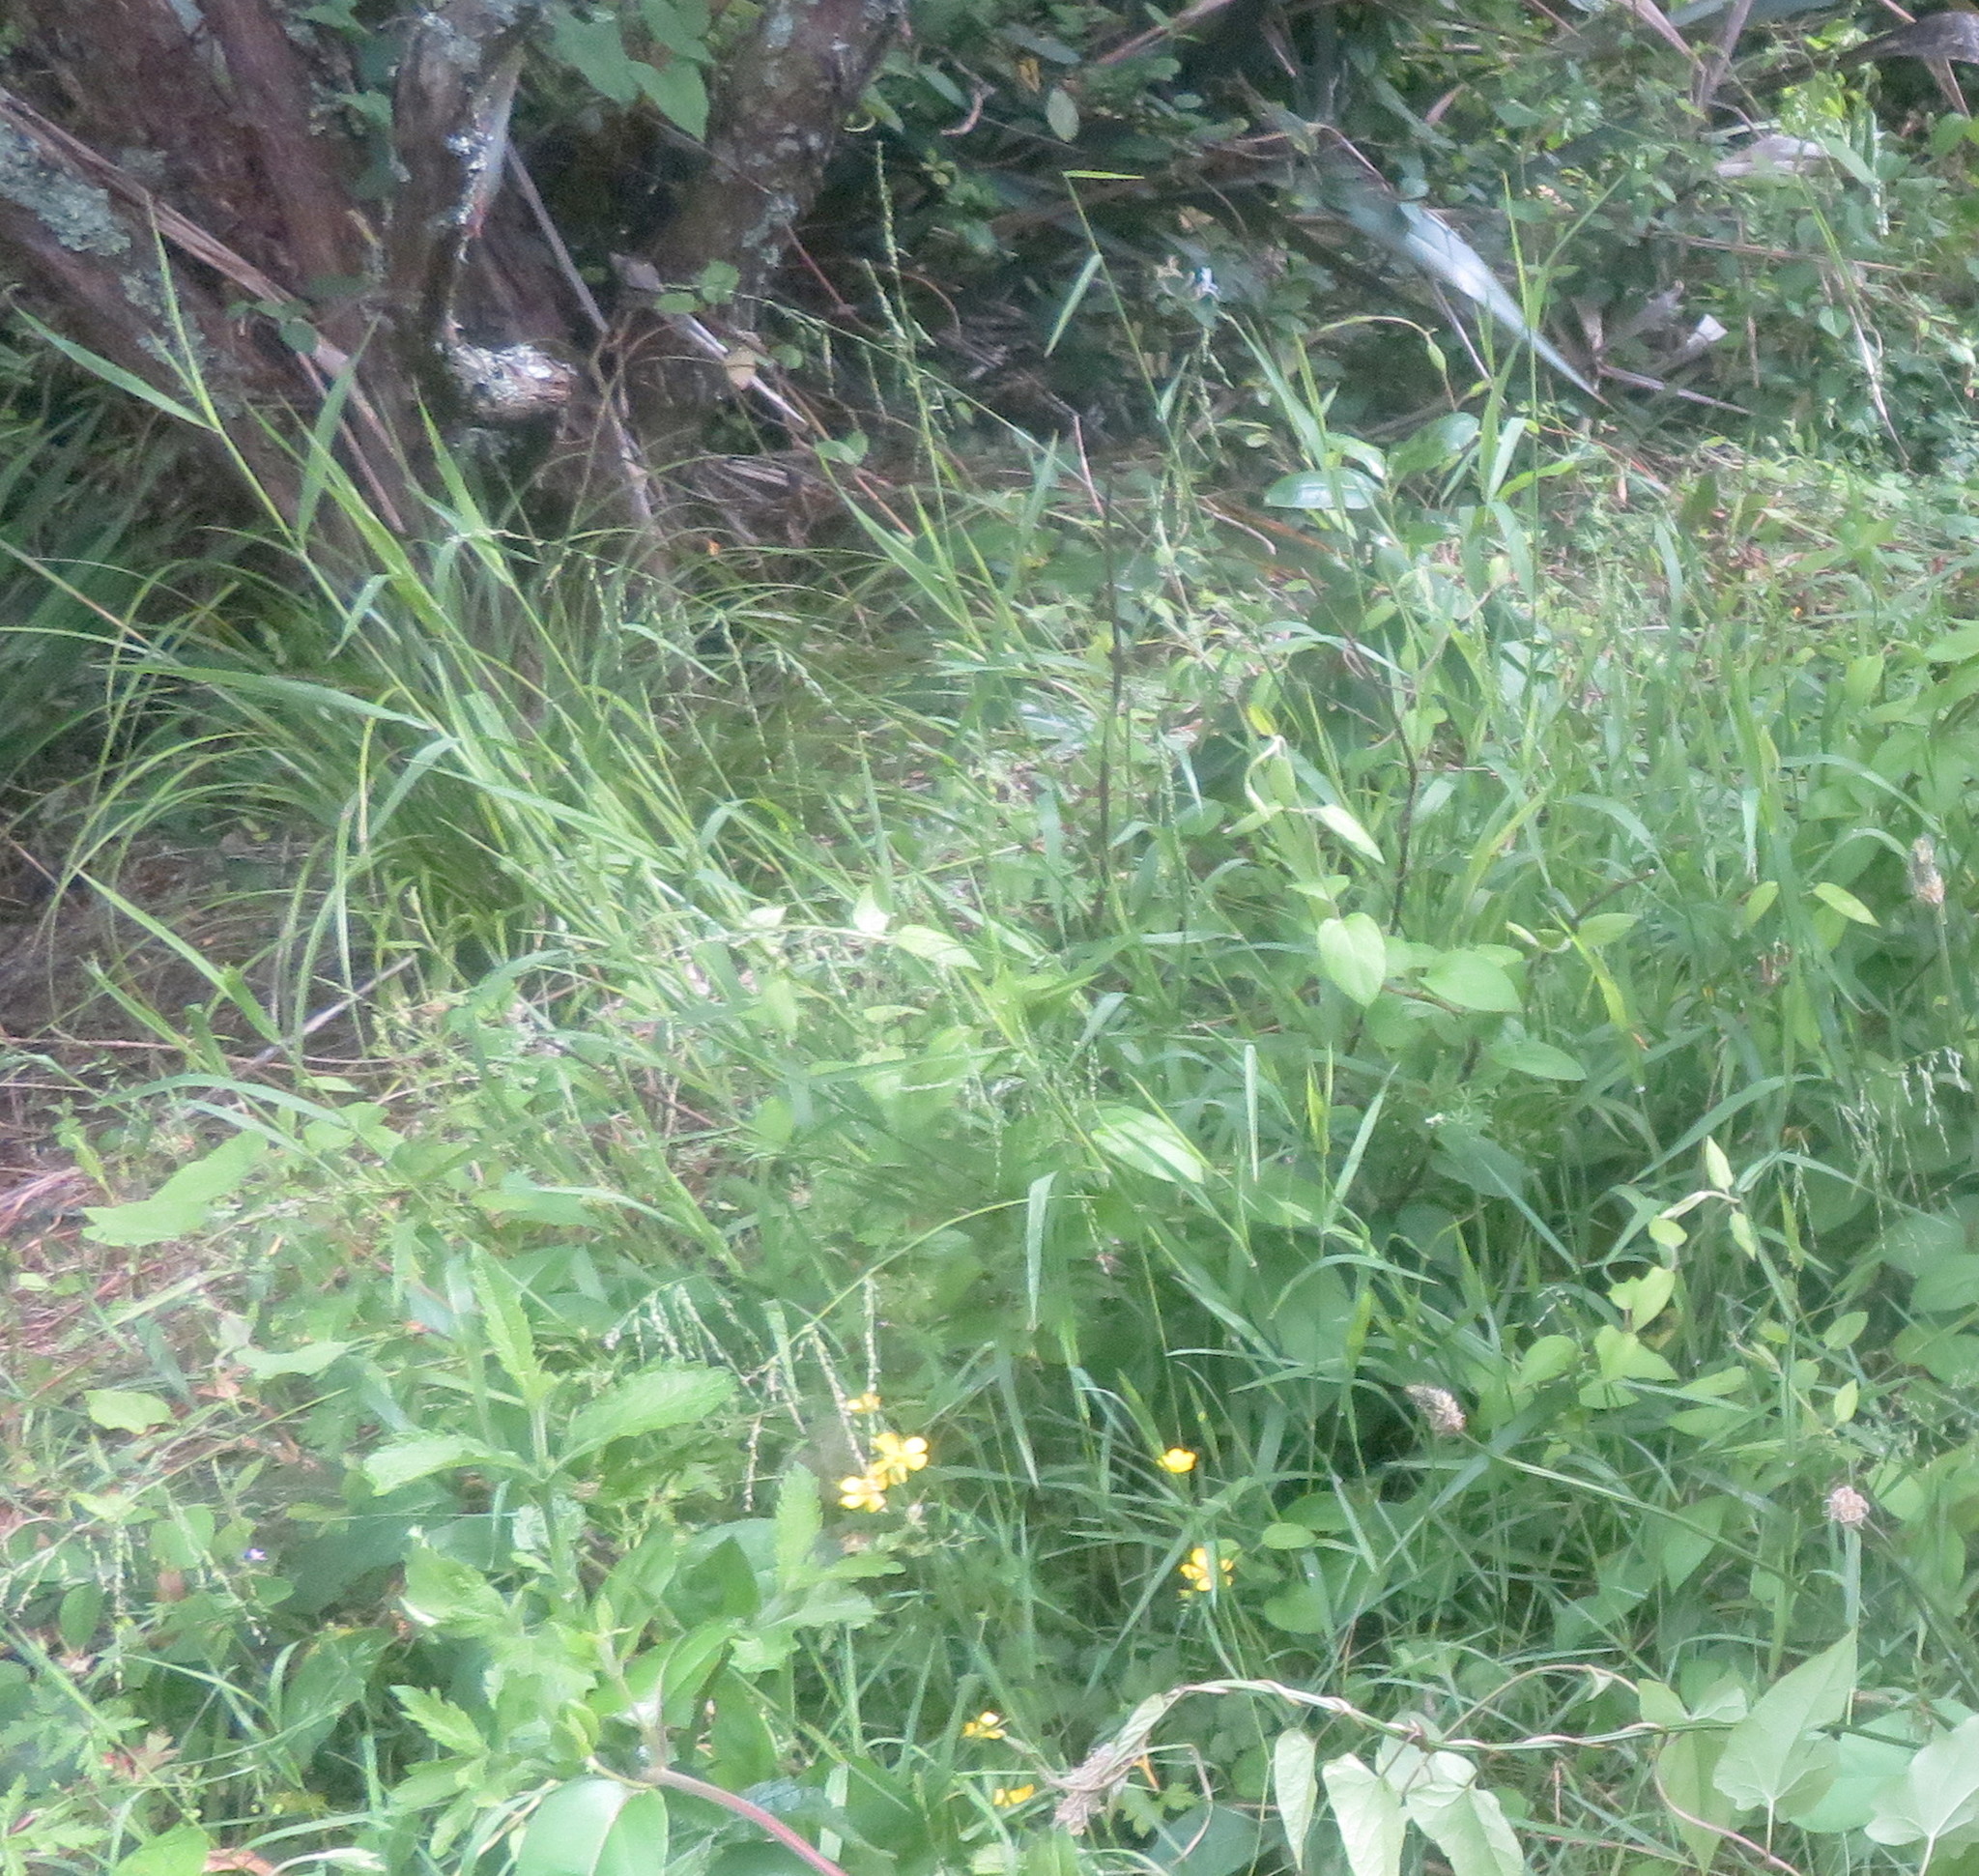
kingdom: Plantae
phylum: Tracheophyta
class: Liliopsida
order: Poales
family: Poaceae
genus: Ehrharta
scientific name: Ehrharta erecta
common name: Panic veldtgrass
